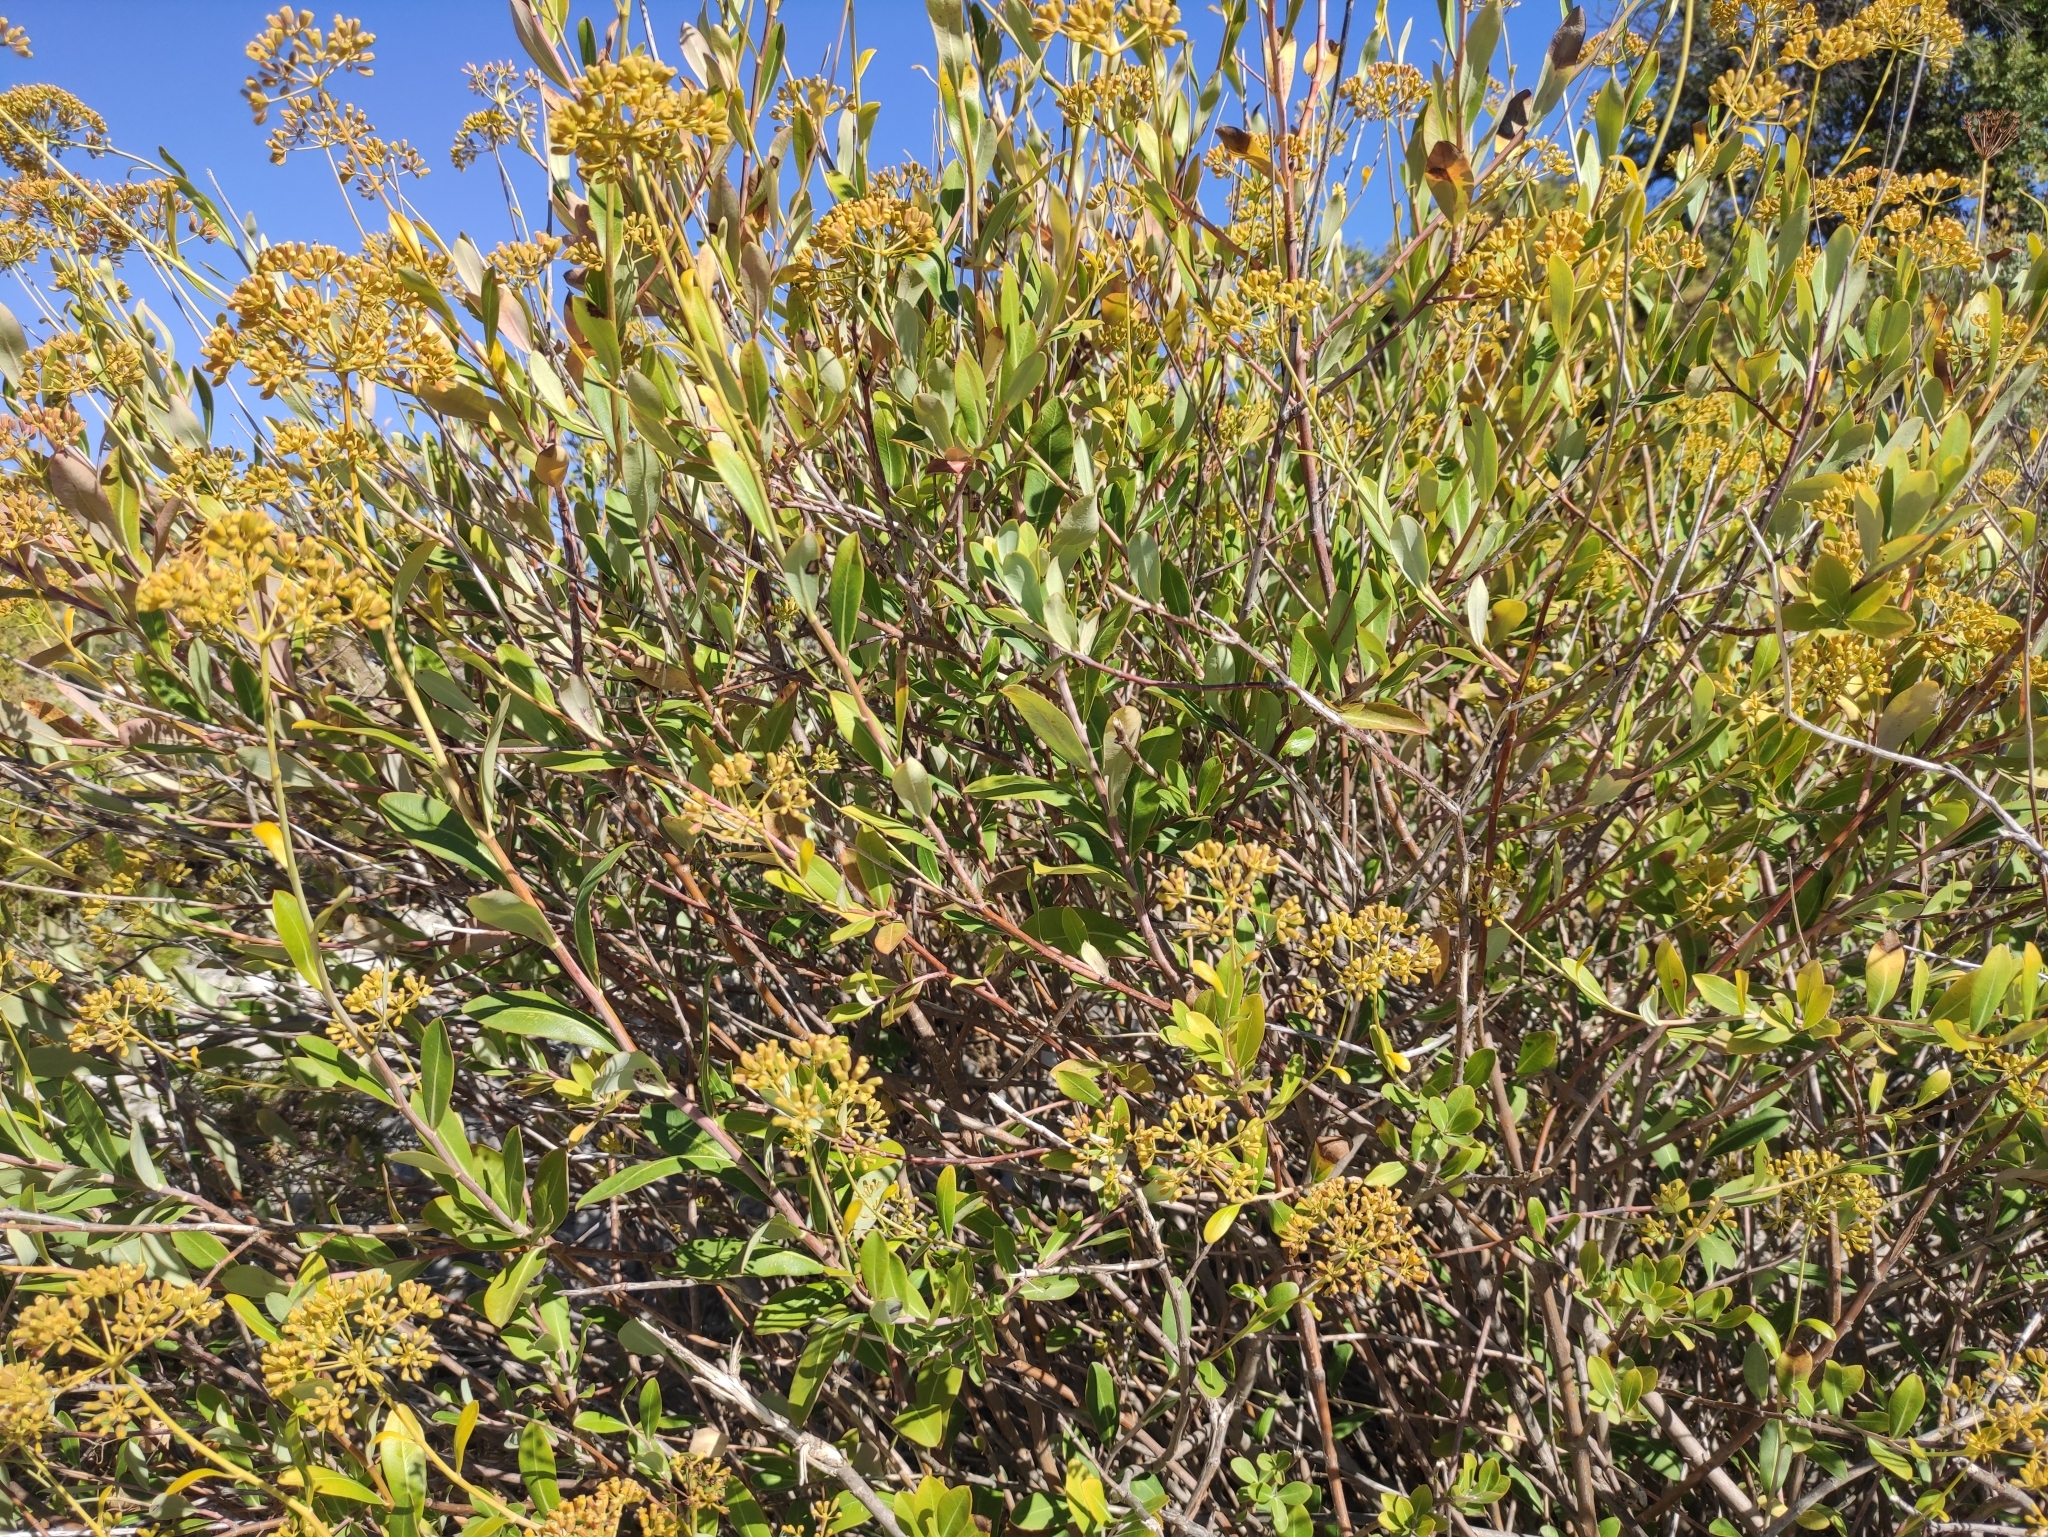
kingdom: Plantae
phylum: Tracheophyta
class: Magnoliopsida
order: Apiales
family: Apiaceae
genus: Bupleurum
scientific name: Bupleurum fruticosum
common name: Shrubby hare's-ear
